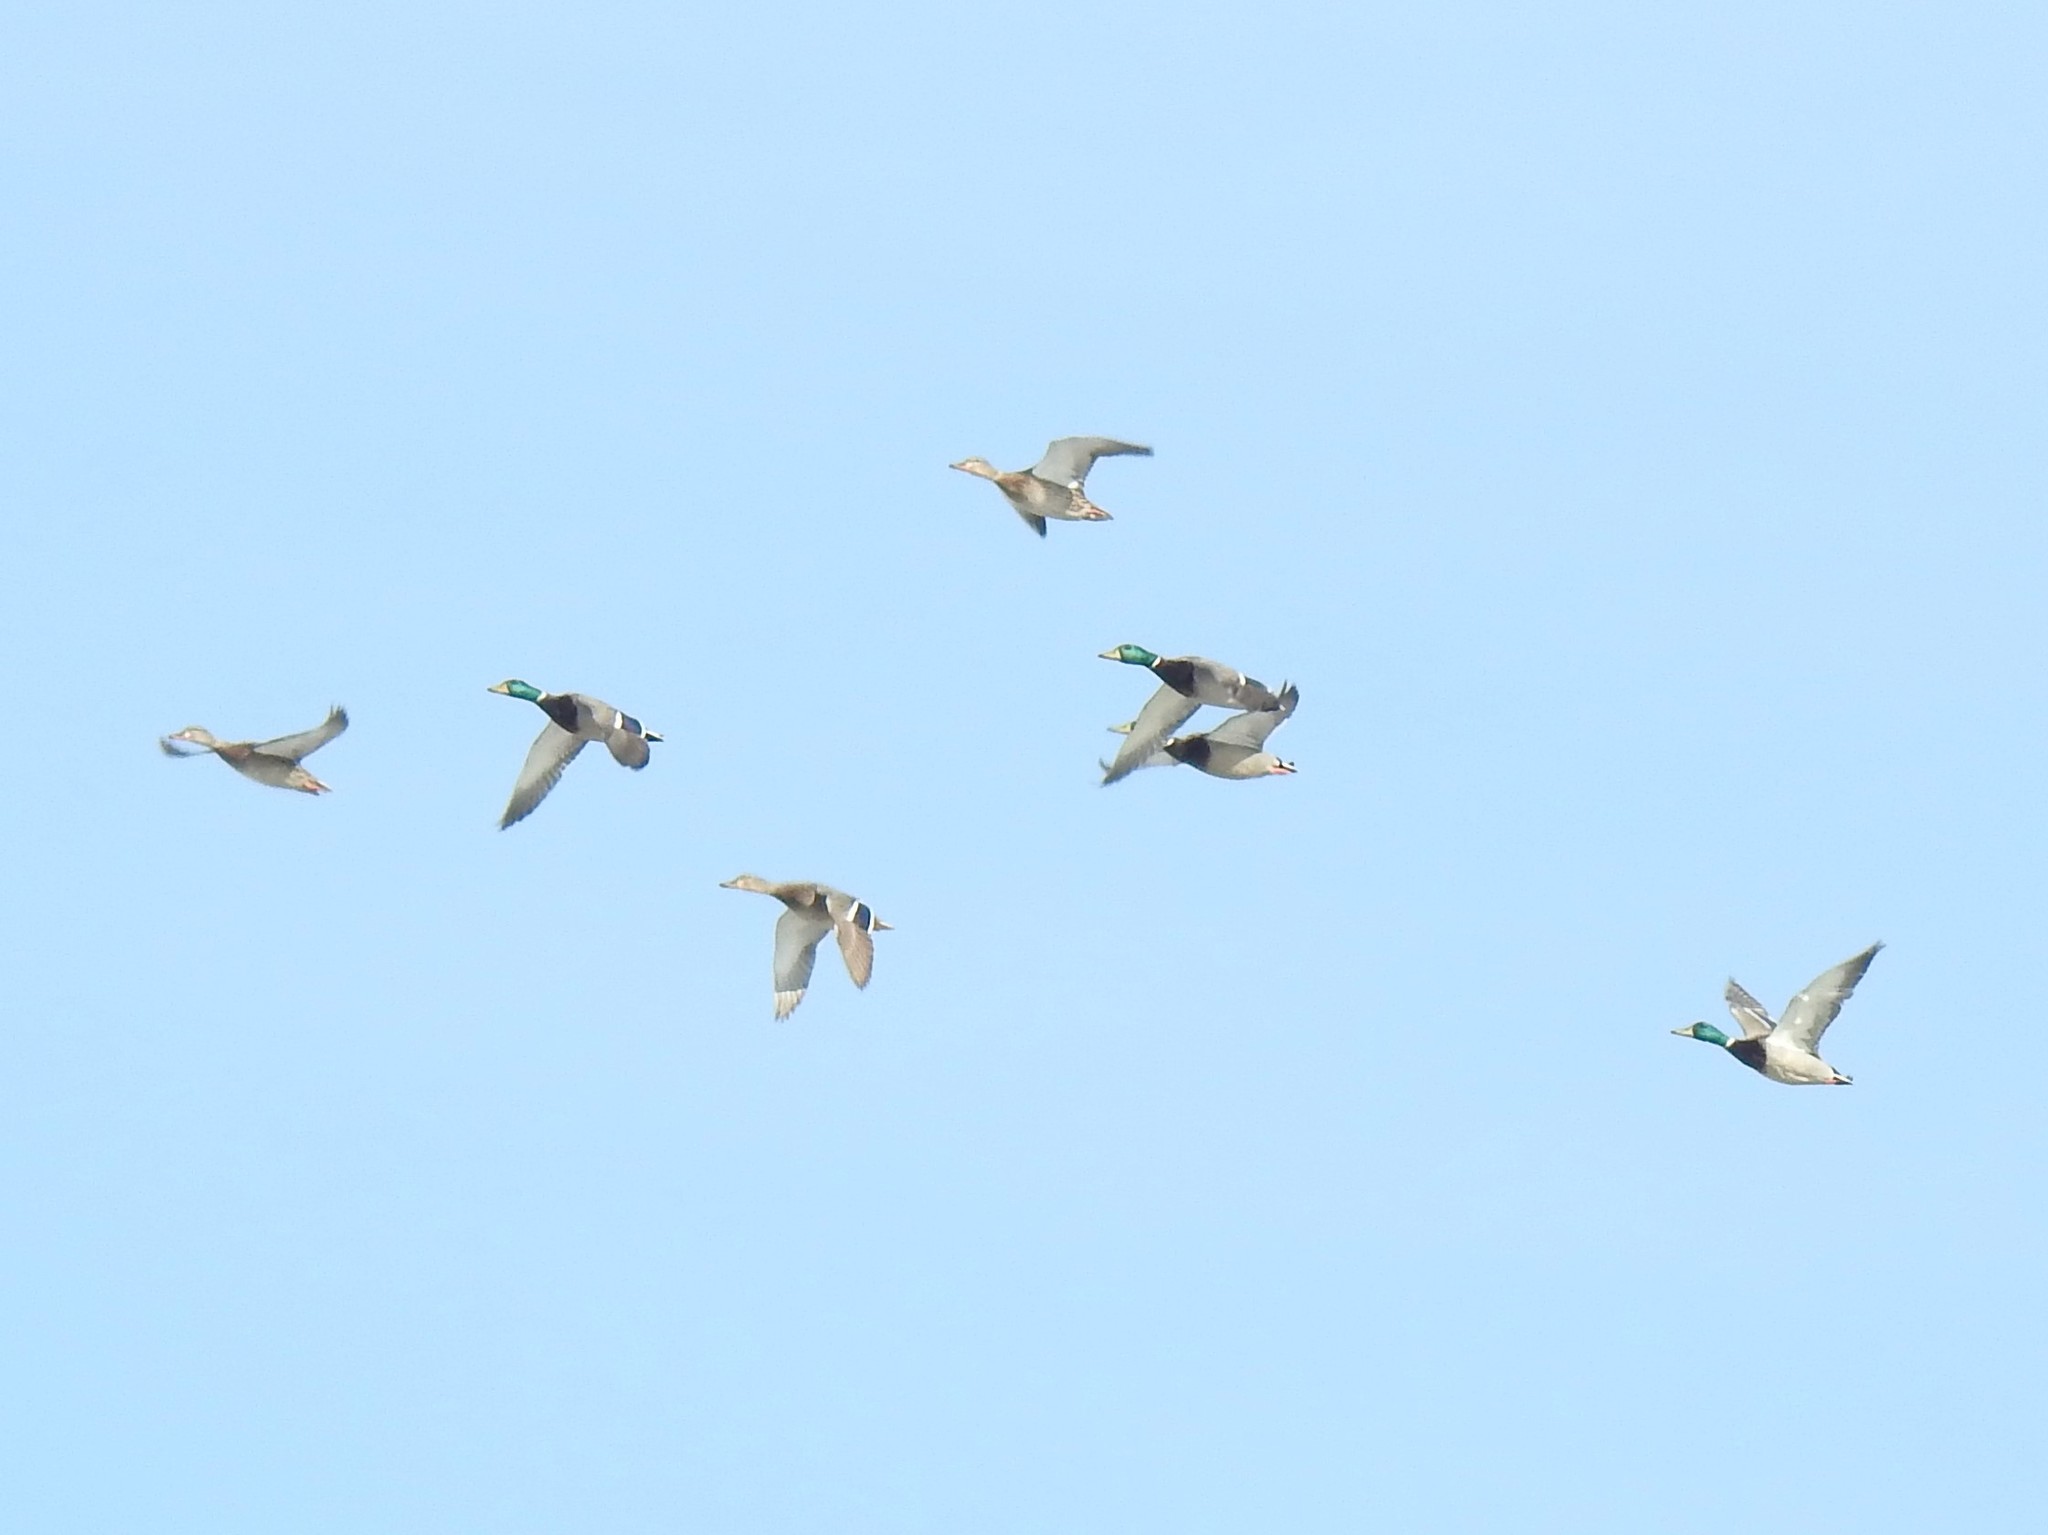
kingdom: Animalia
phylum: Chordata
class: Aves
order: Anseriformes
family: Anatidae
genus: Anas
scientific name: Anas platyrhynchos
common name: Mallard
